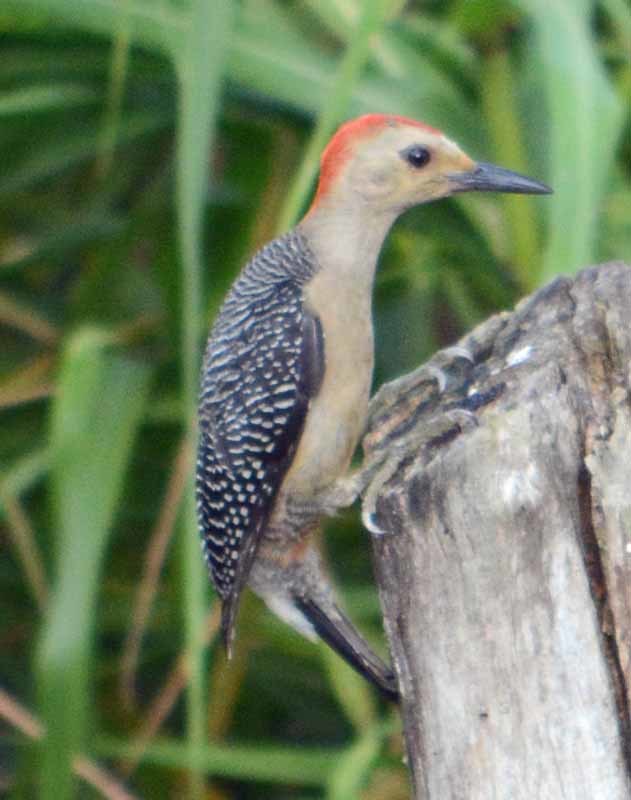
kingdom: Animalia
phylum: Chordata
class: Aves
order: Piciformes
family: Picidae
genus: Melanerpes
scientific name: Melanerpes aurifrons
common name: Golden-fronted woodpecker
